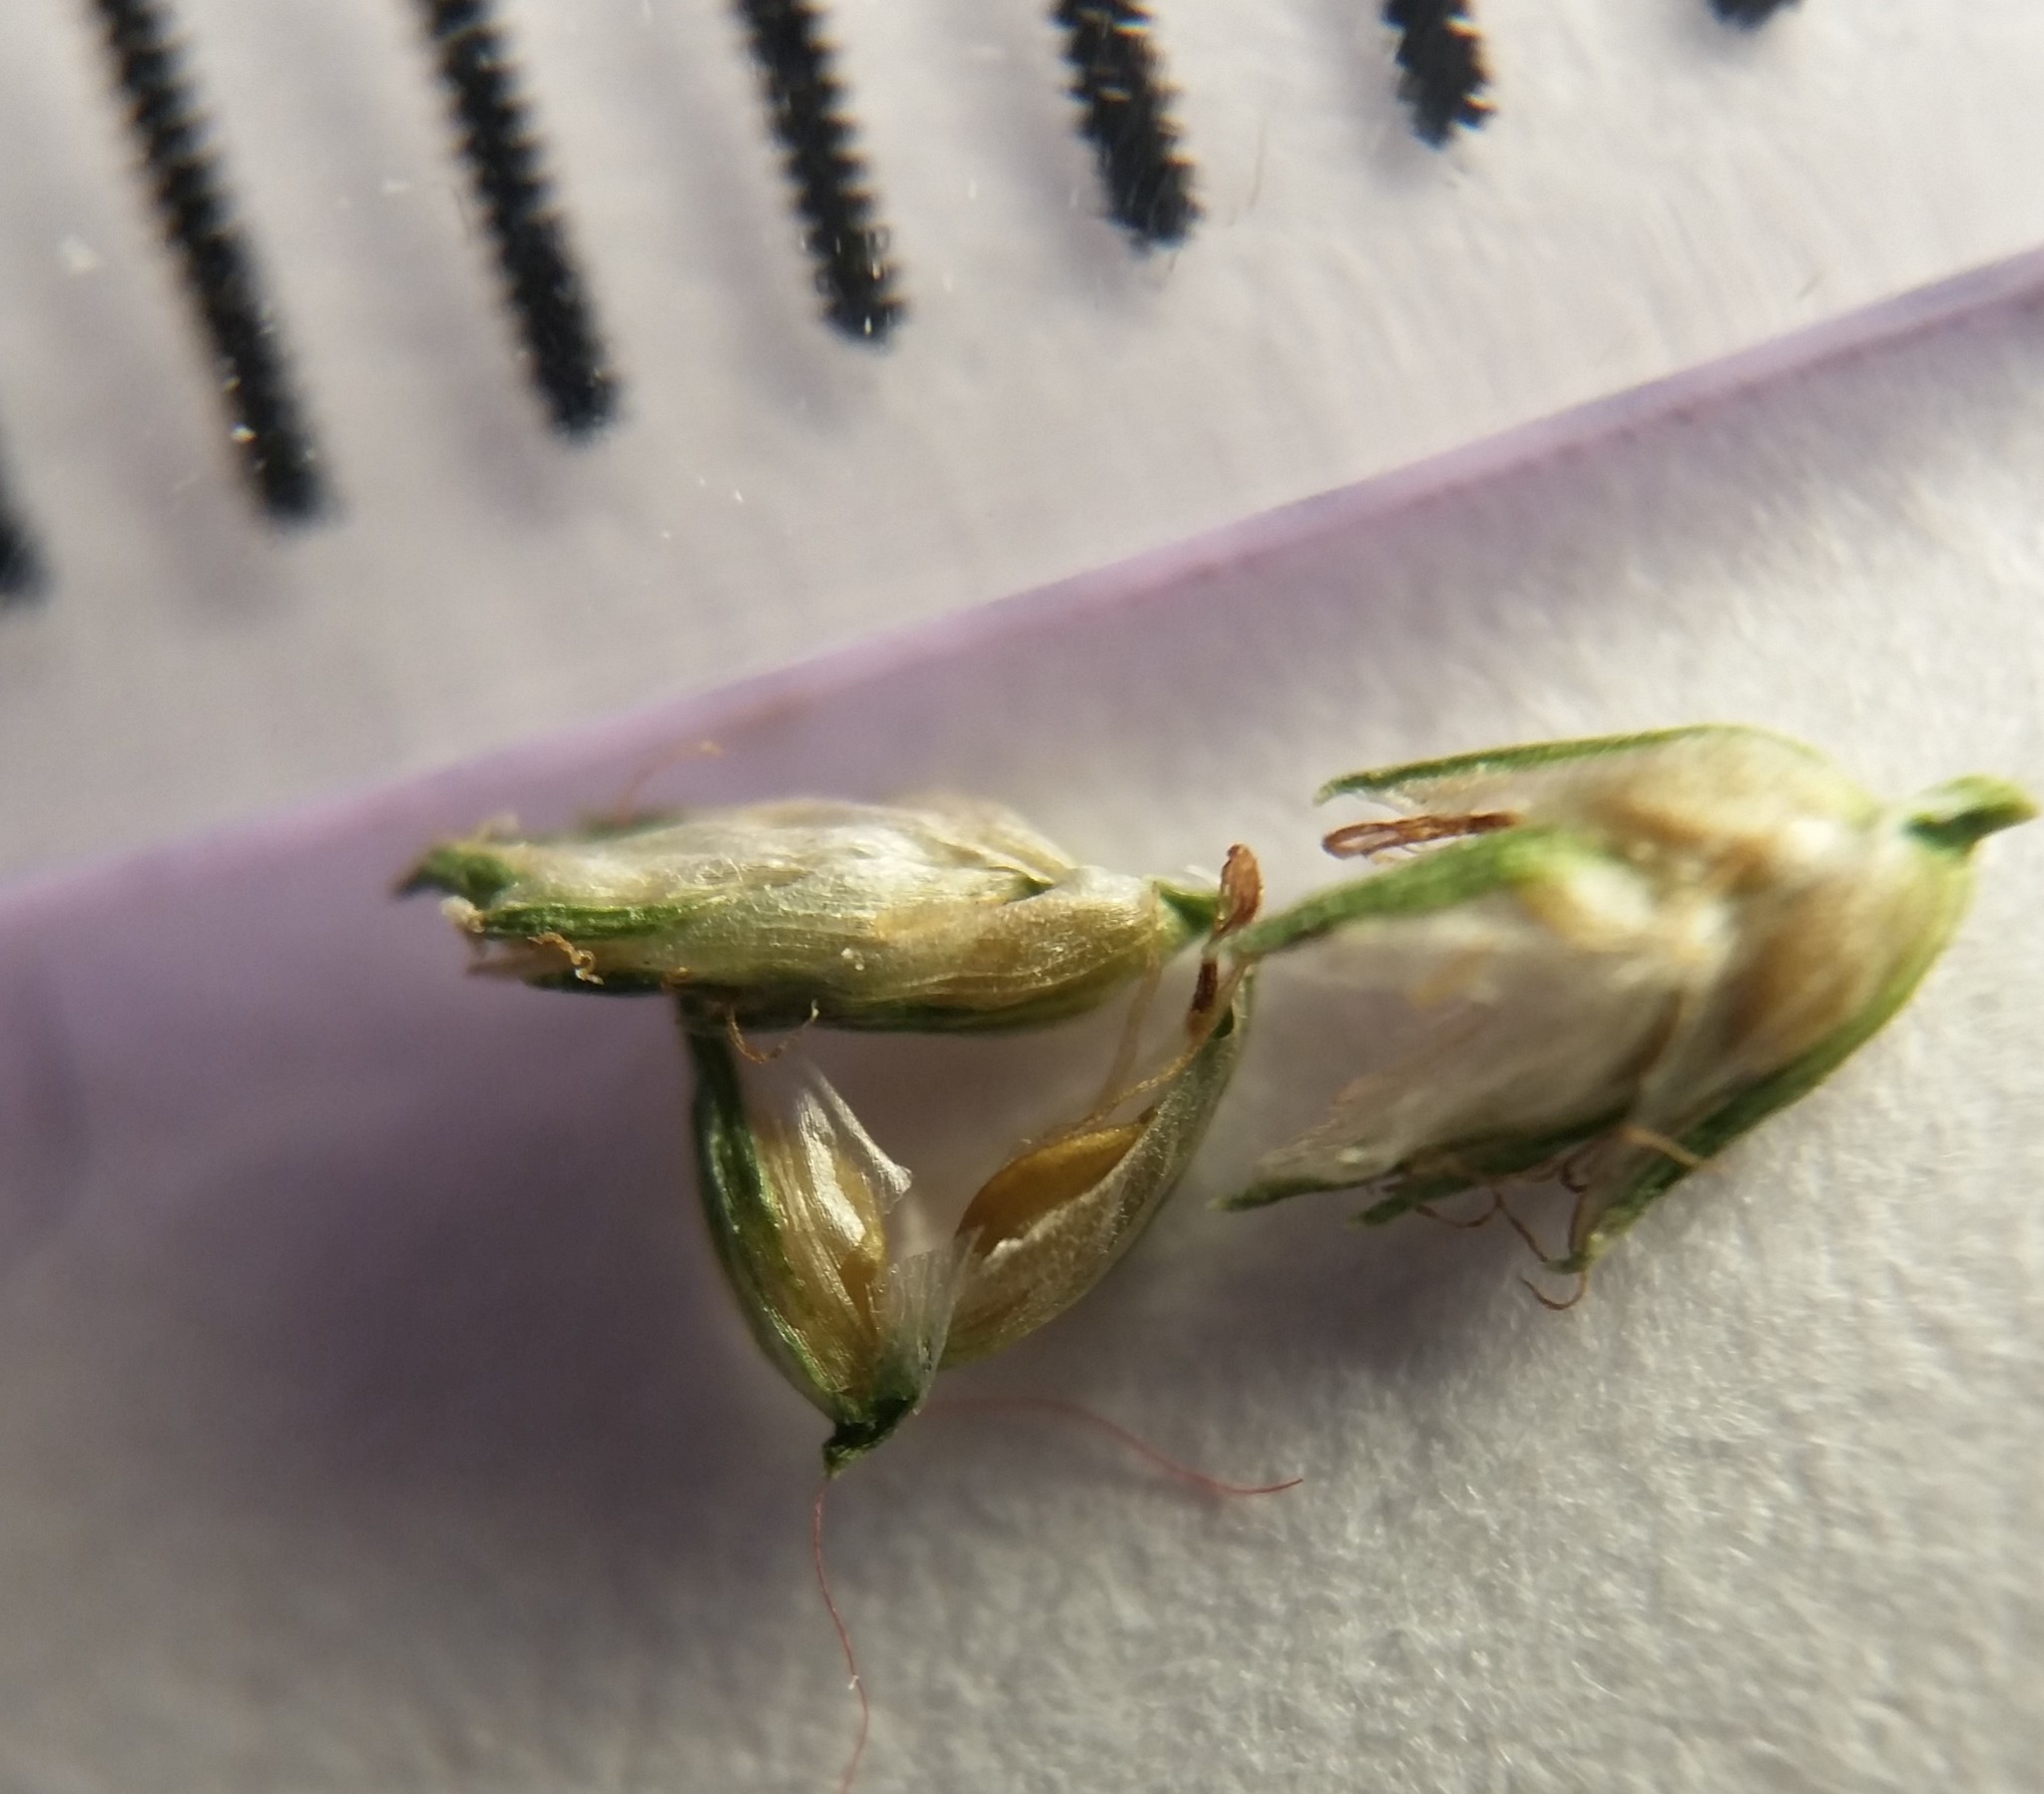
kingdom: Plantae
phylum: Tracheophyta
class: Liliopsida
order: Poales
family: Cyperaceae
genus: Cyperus
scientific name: Cyperus nipponicus
